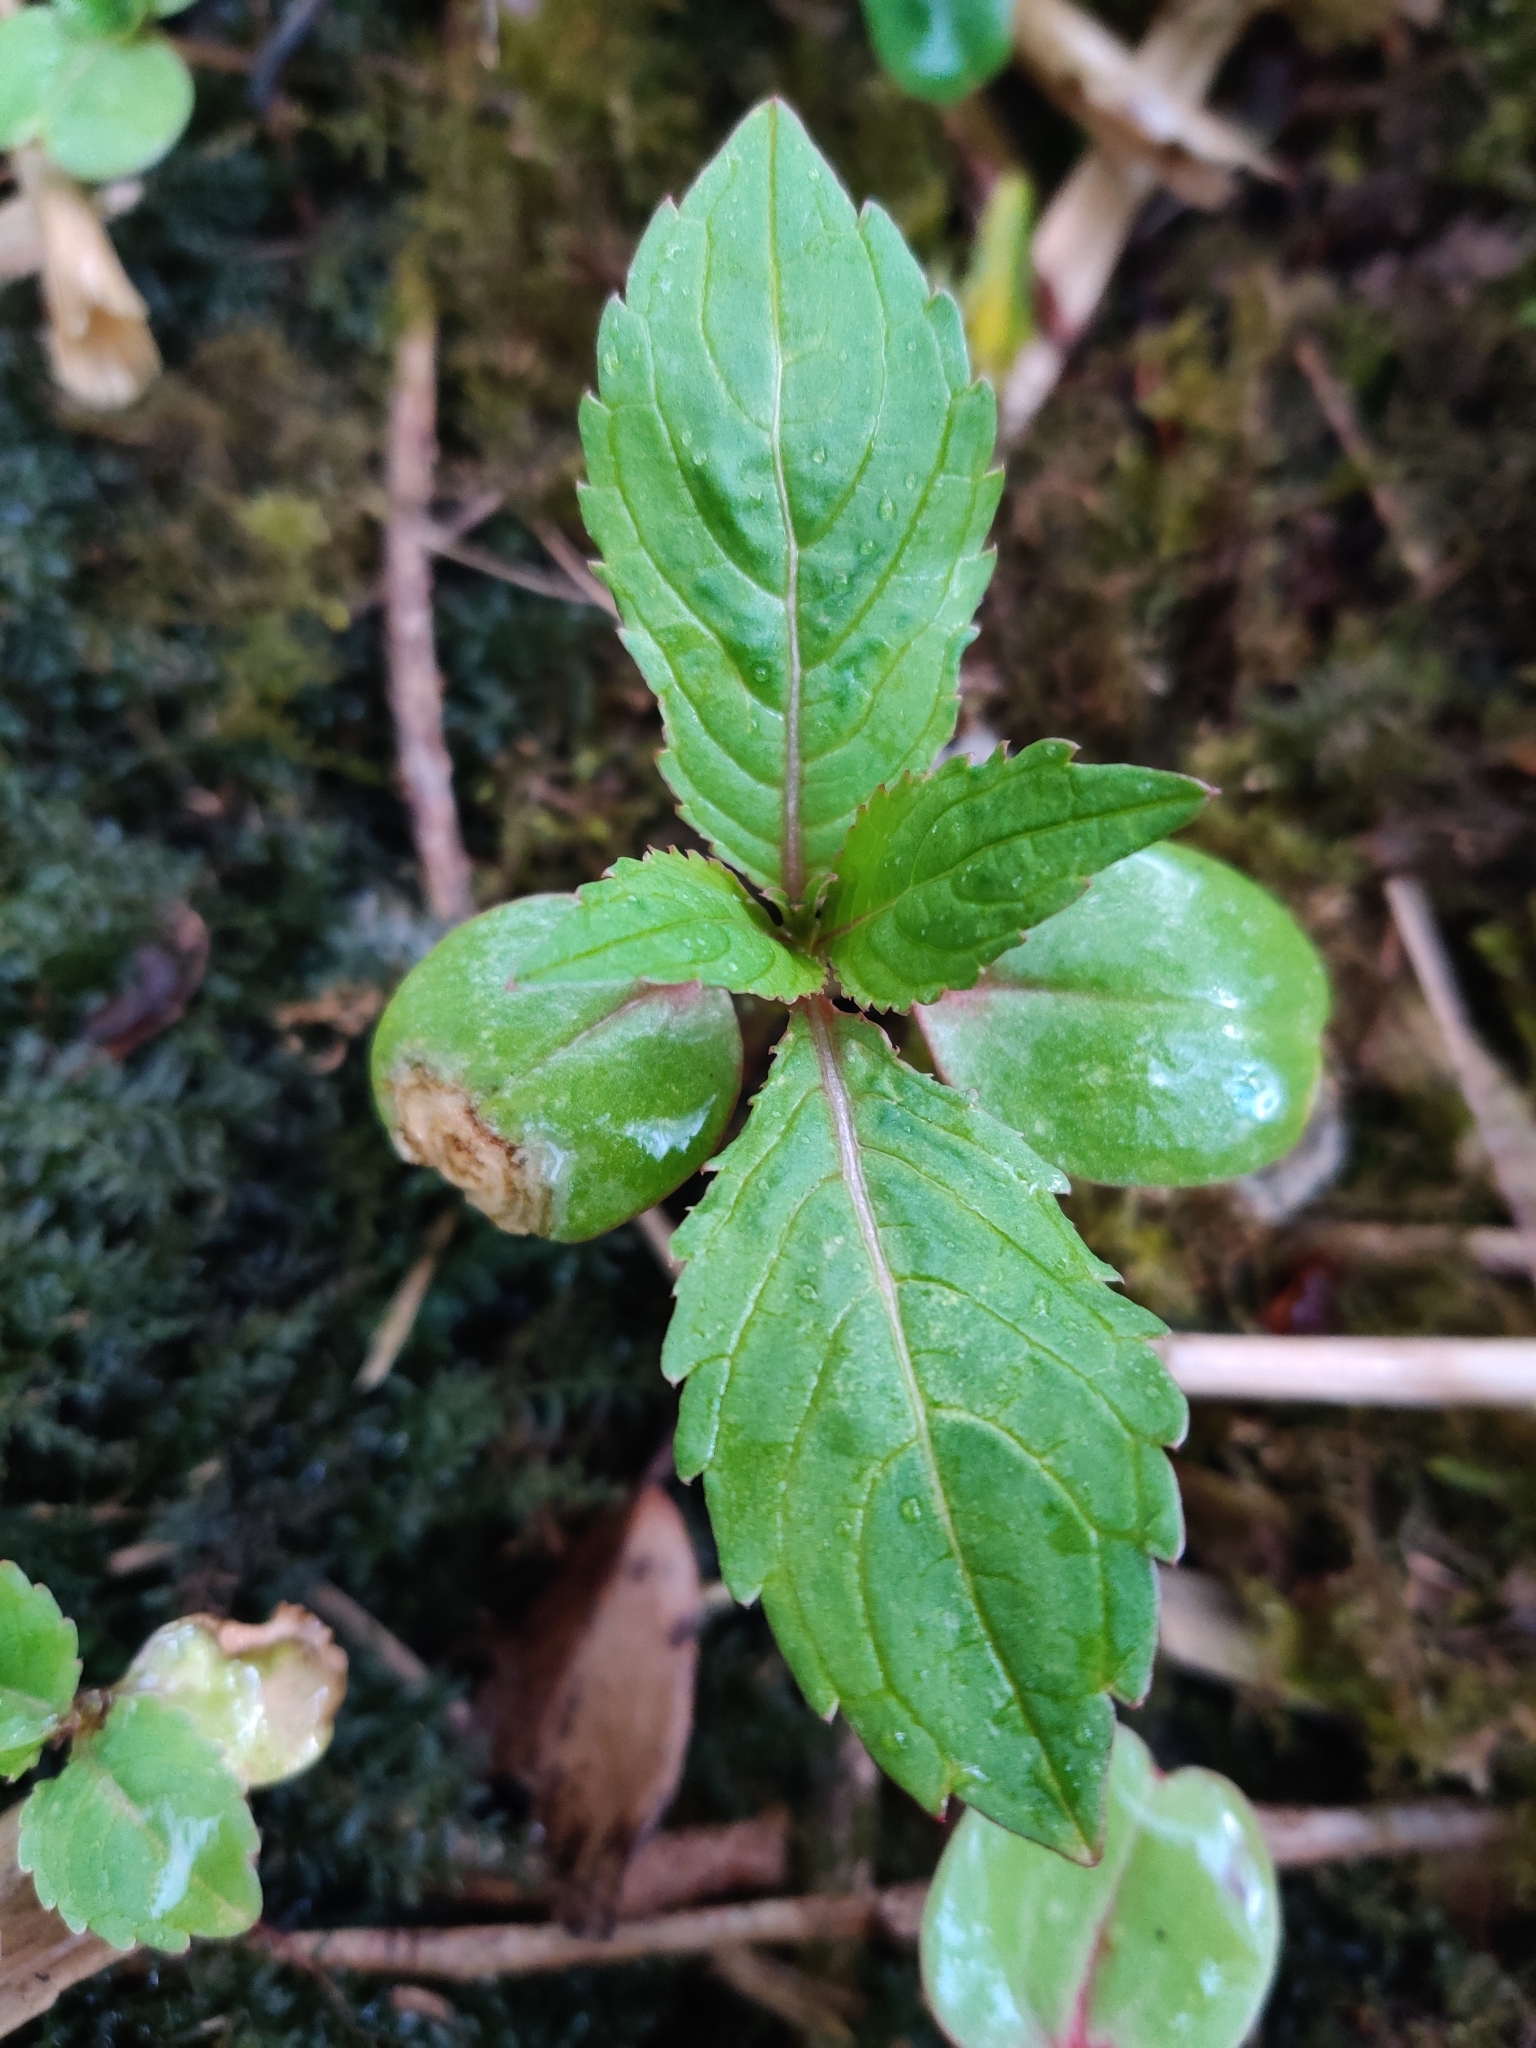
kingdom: Plantae
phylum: Tracheophyta
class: Magnoliopsida
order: Ericales
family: Balsaminaceae
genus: Impatiens
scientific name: Impatiens glandulifera
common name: Himalayan balsam
